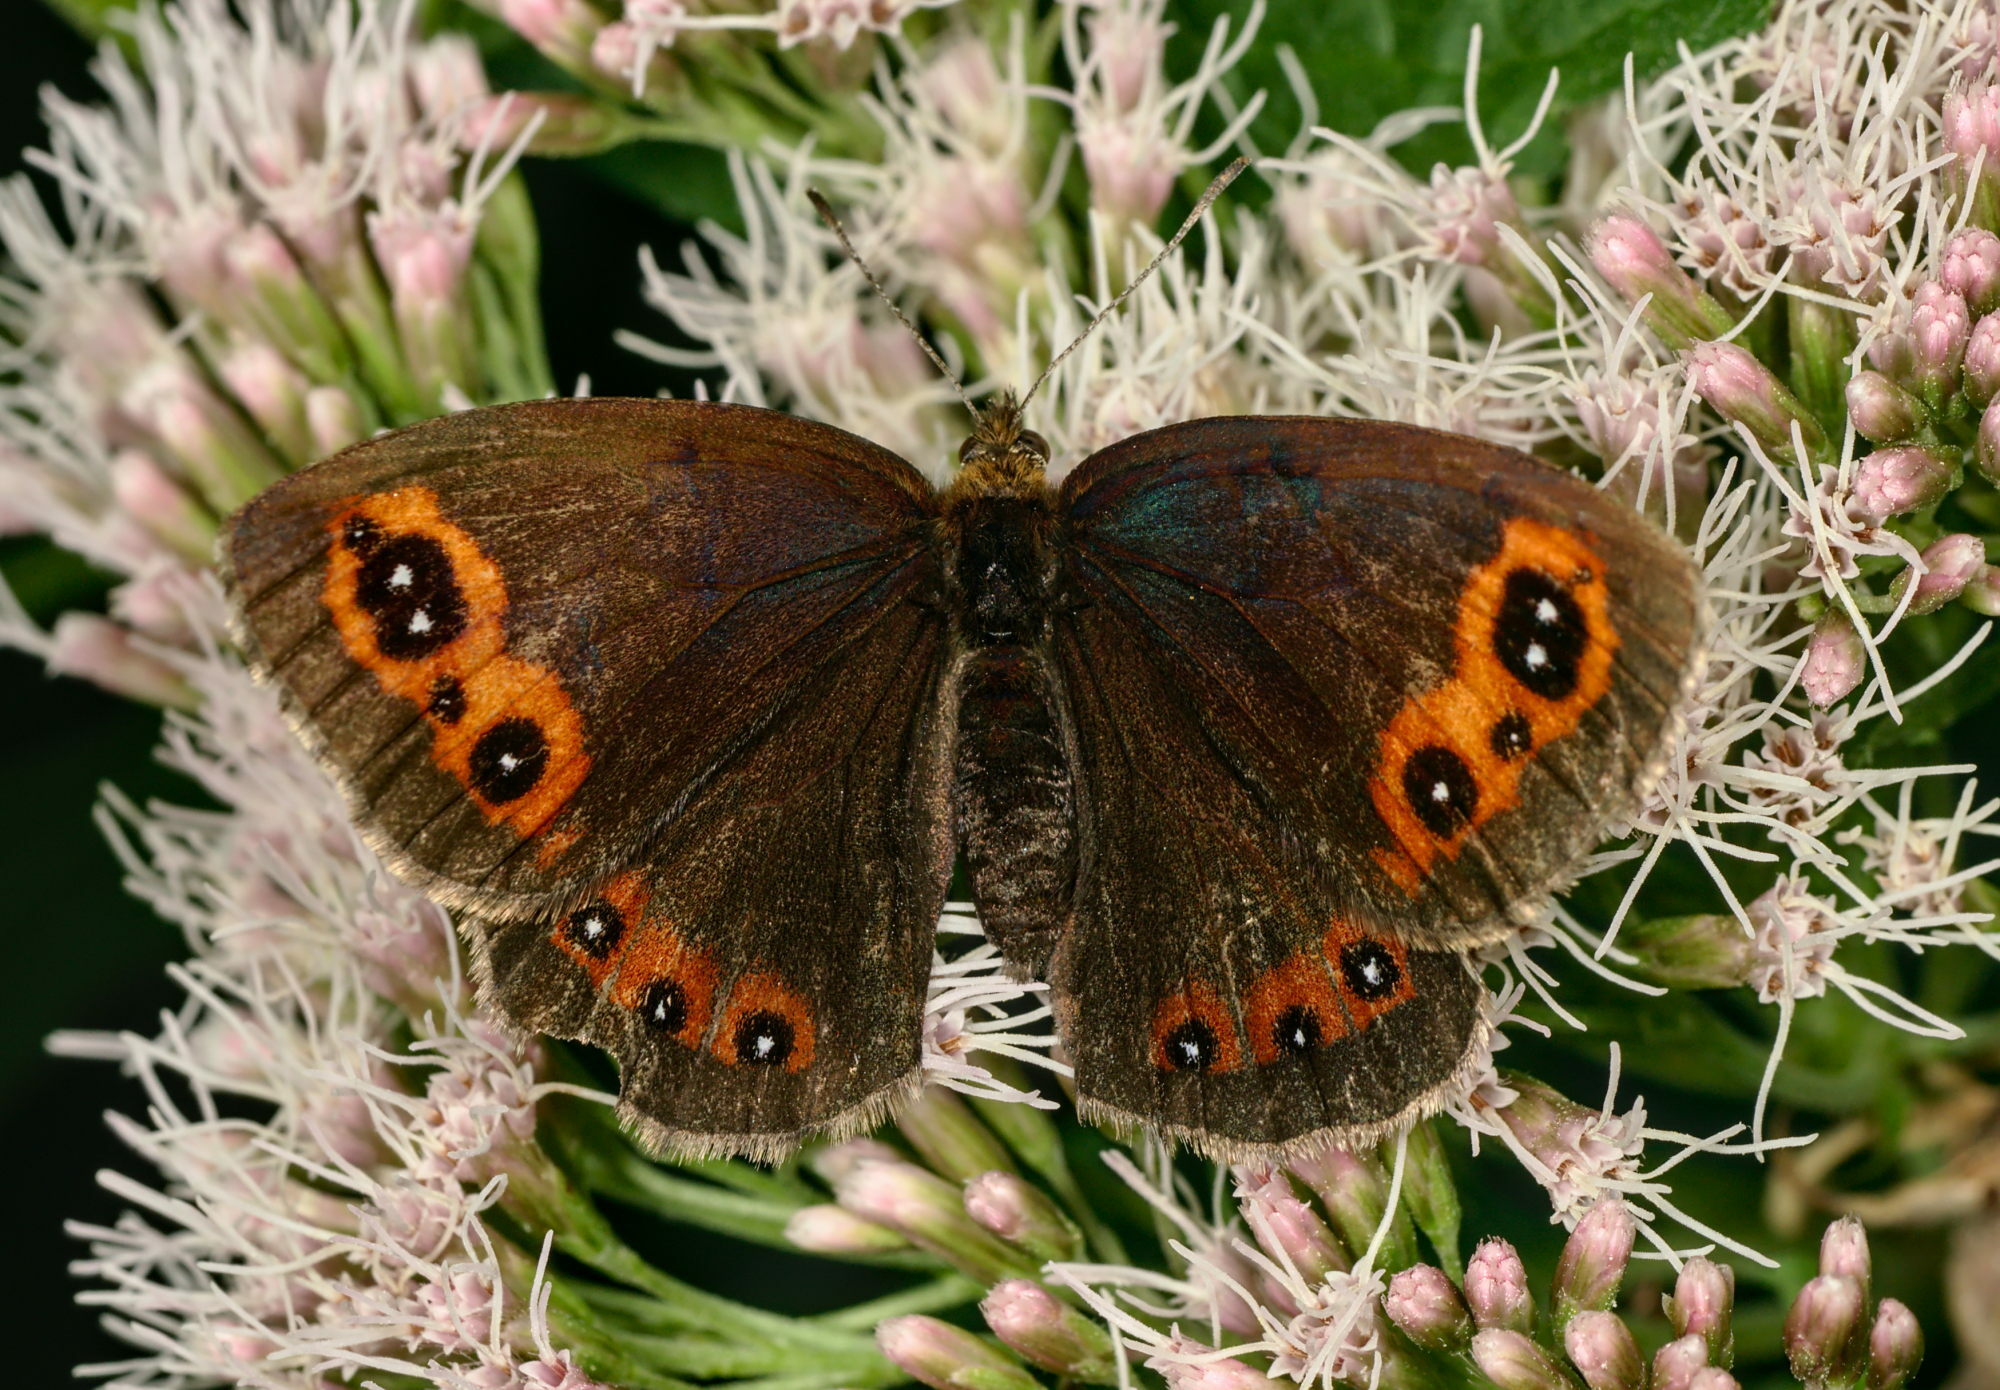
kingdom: Animalia
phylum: Arthropoda
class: Insecta
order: Lepidoptera
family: Nymphalidae
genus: Erebia
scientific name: Erebia aethiops
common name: Scotch argus
